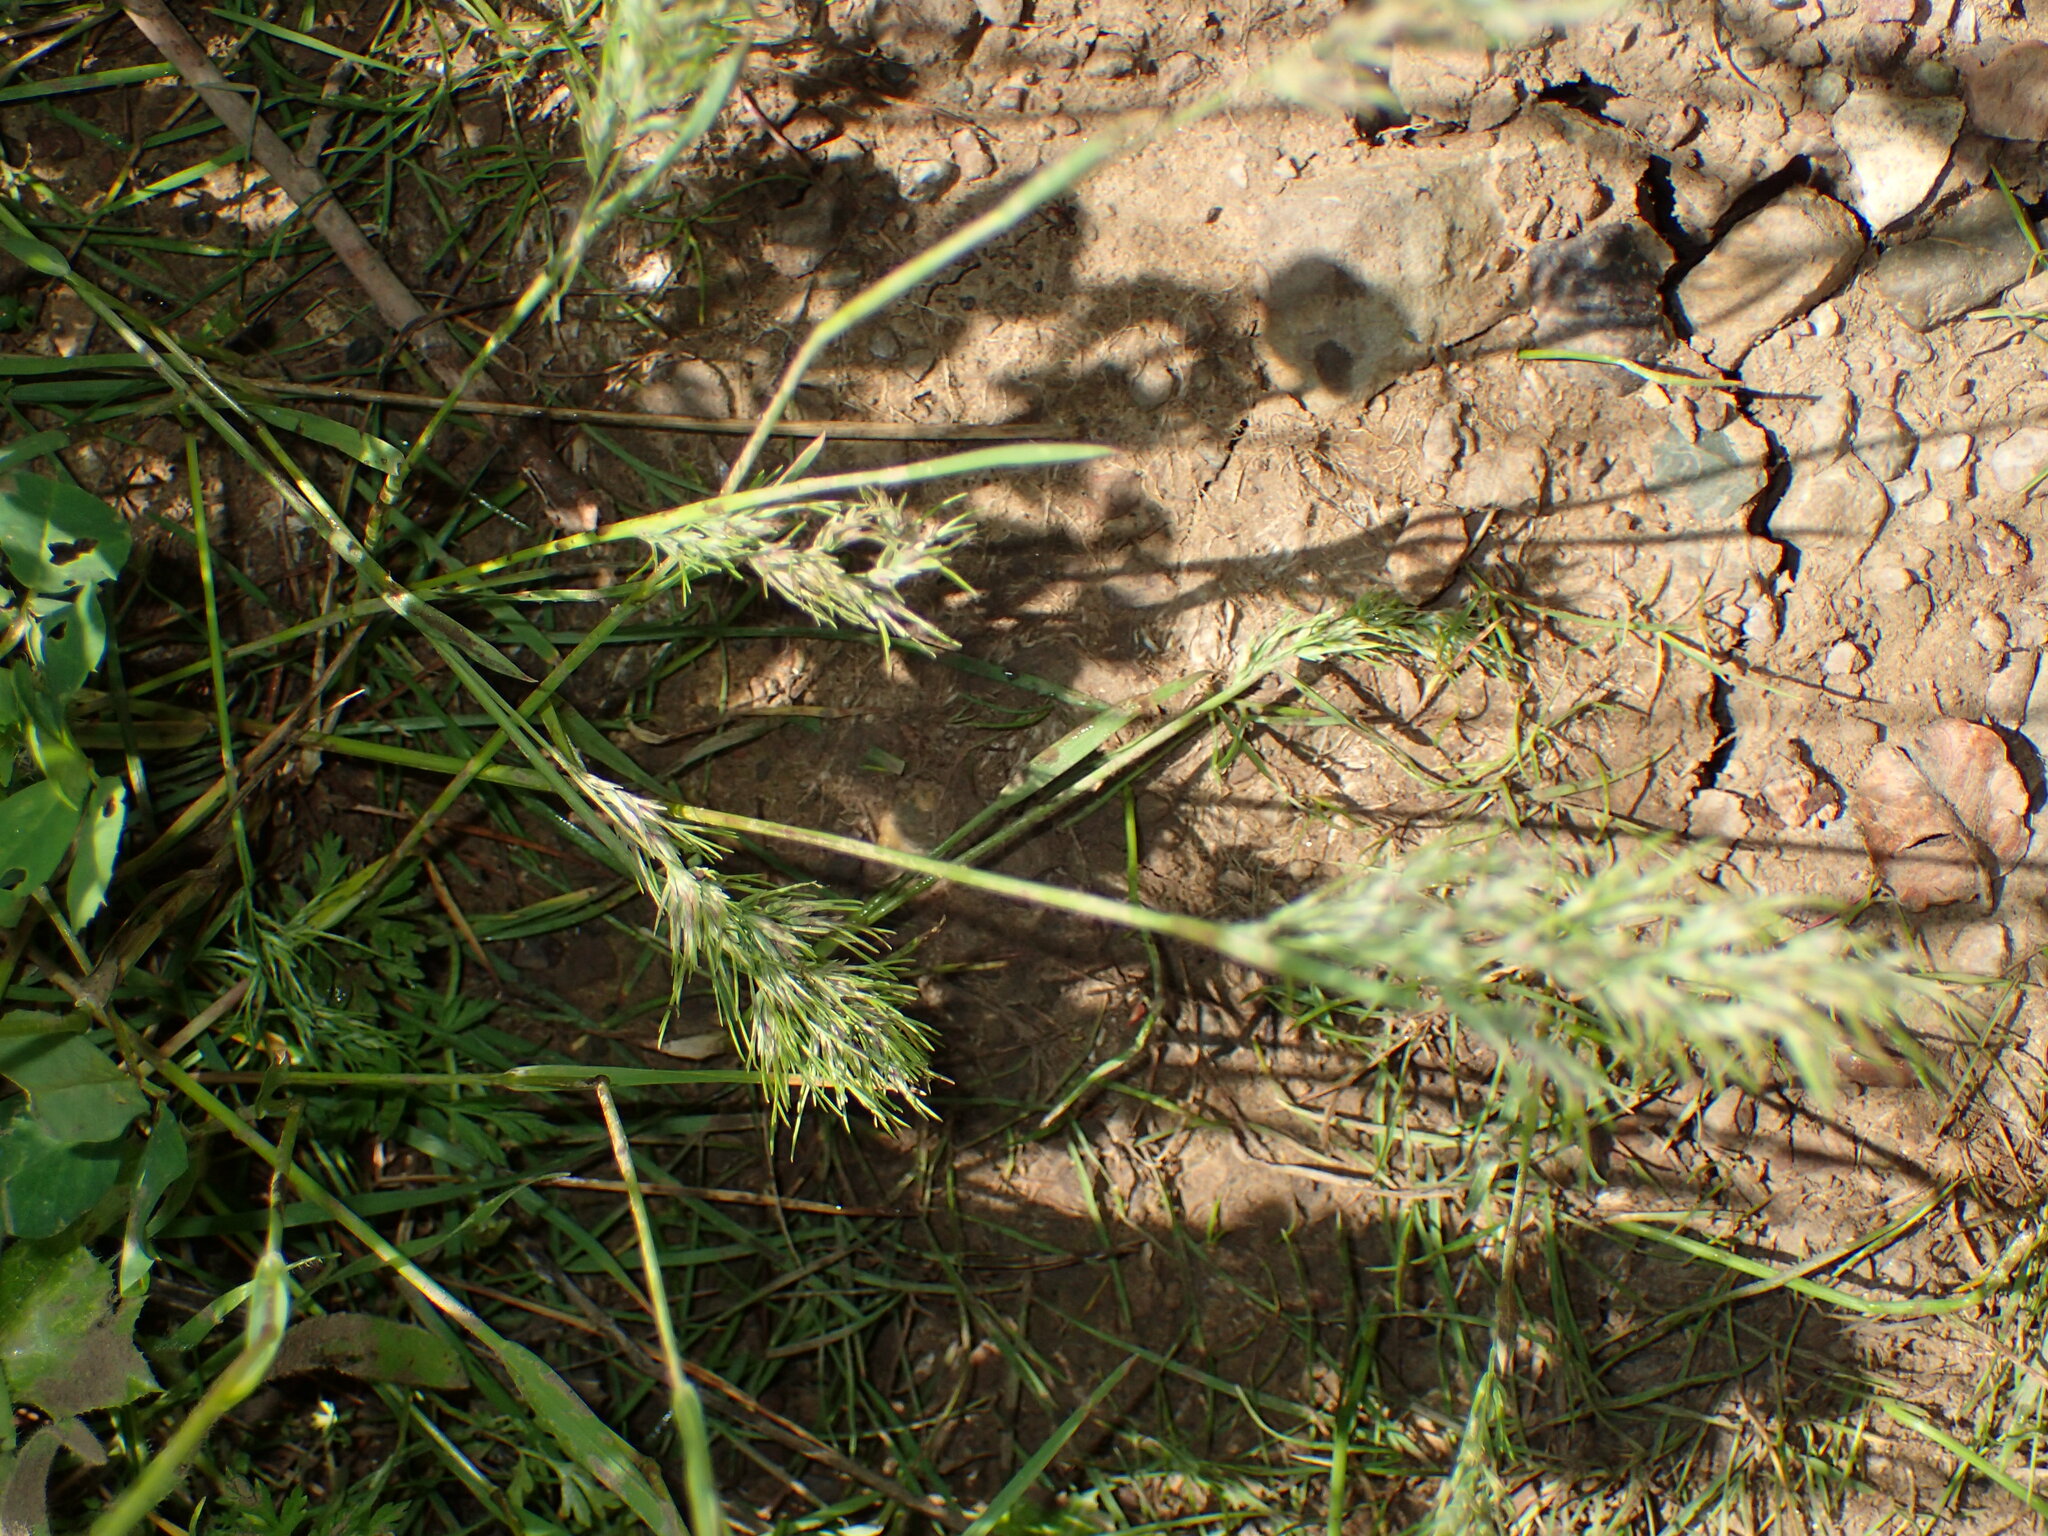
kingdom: Plantae
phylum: Tracheophyta
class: Liliopsida
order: Poales
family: Poaceae
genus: Poa
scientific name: Poa bulbosa
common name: Bulbous bluegrass
